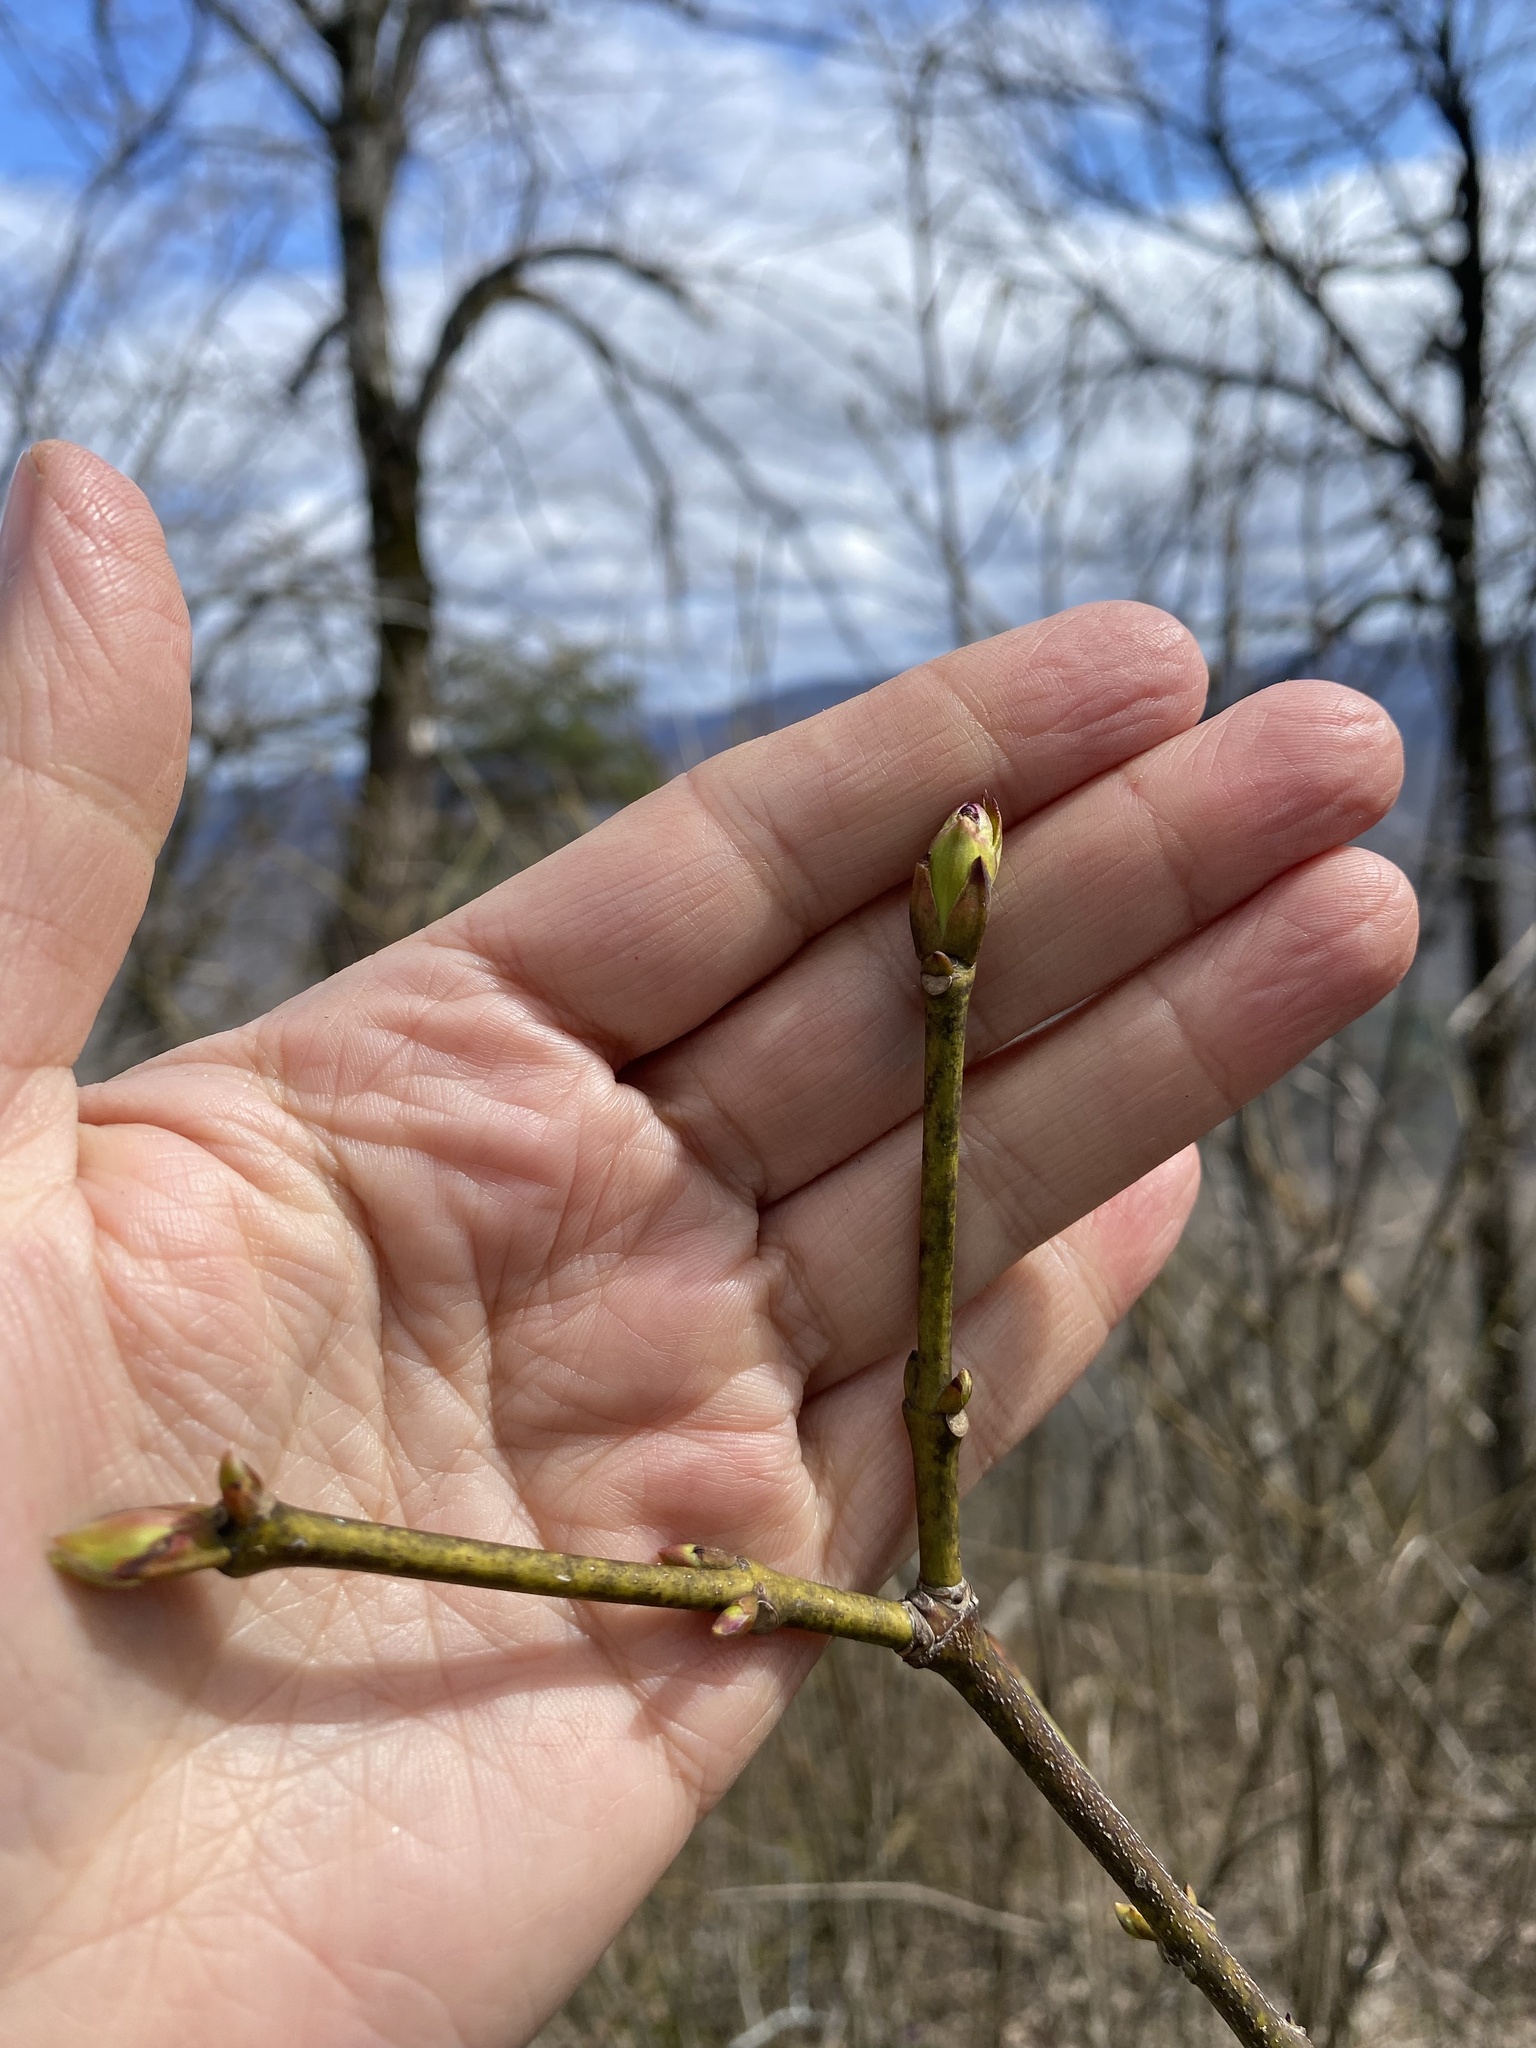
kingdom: Plantae
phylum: Tracheophyta
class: Magnoliopsida
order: Crossosomatales
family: Staphyleaceae
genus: Staphylea
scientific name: Staphylea pinnata
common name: Bladdernut
